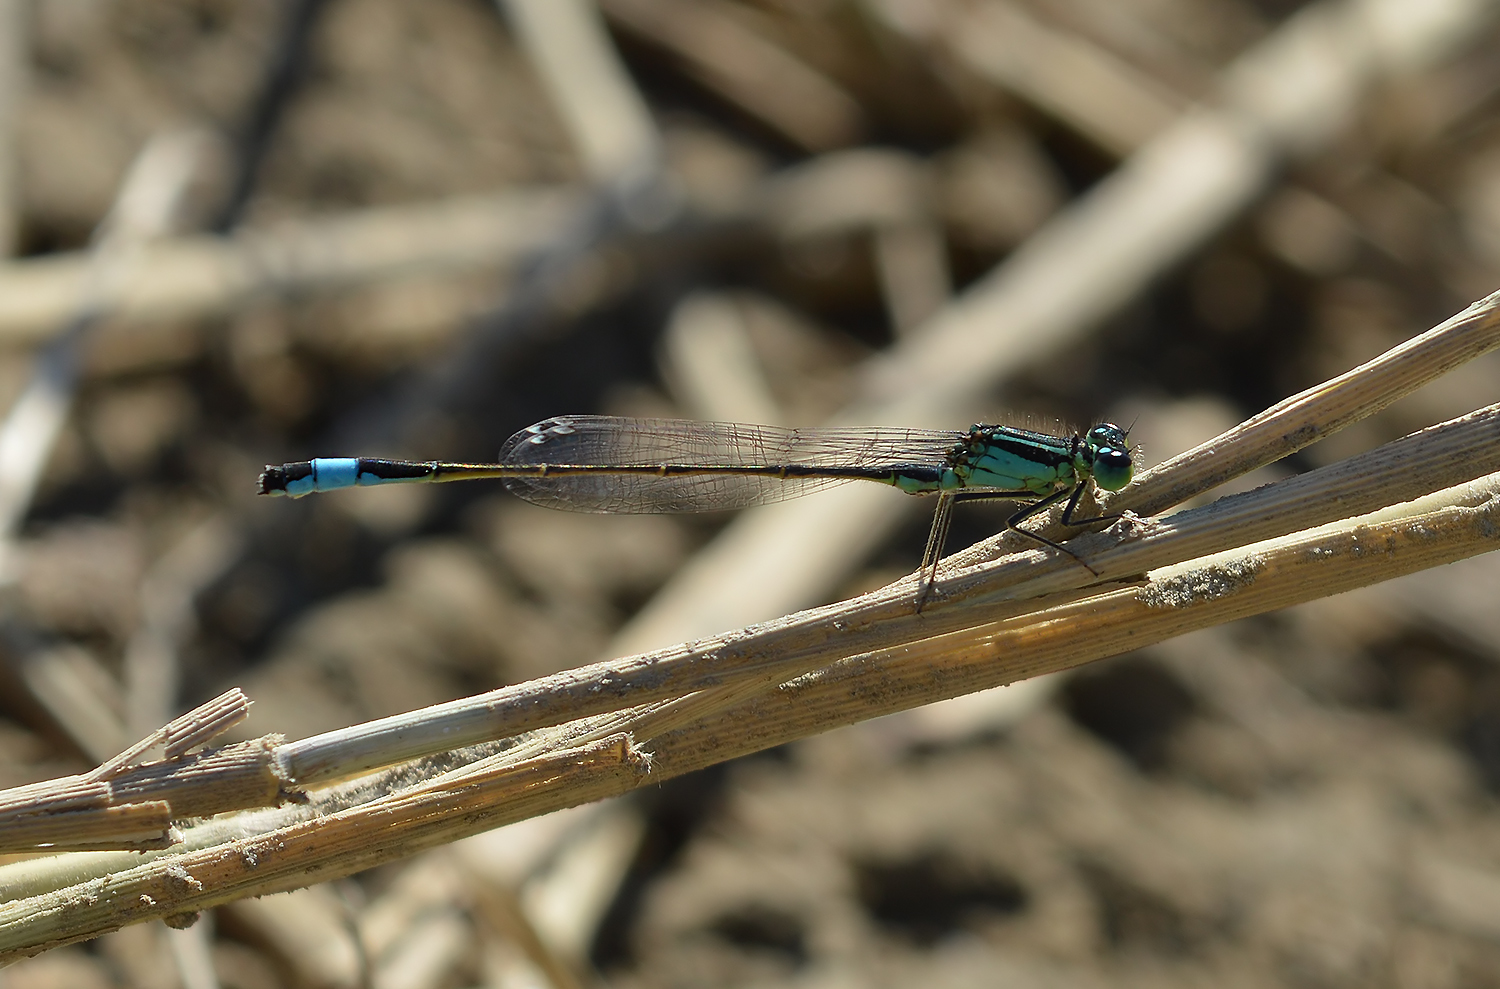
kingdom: Animalia
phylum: Arthropoda
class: Insecta
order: Odonata
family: Coenagrionidae
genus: Ischnura
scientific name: Ischnura elegans
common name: Blue-tailed damselfly
